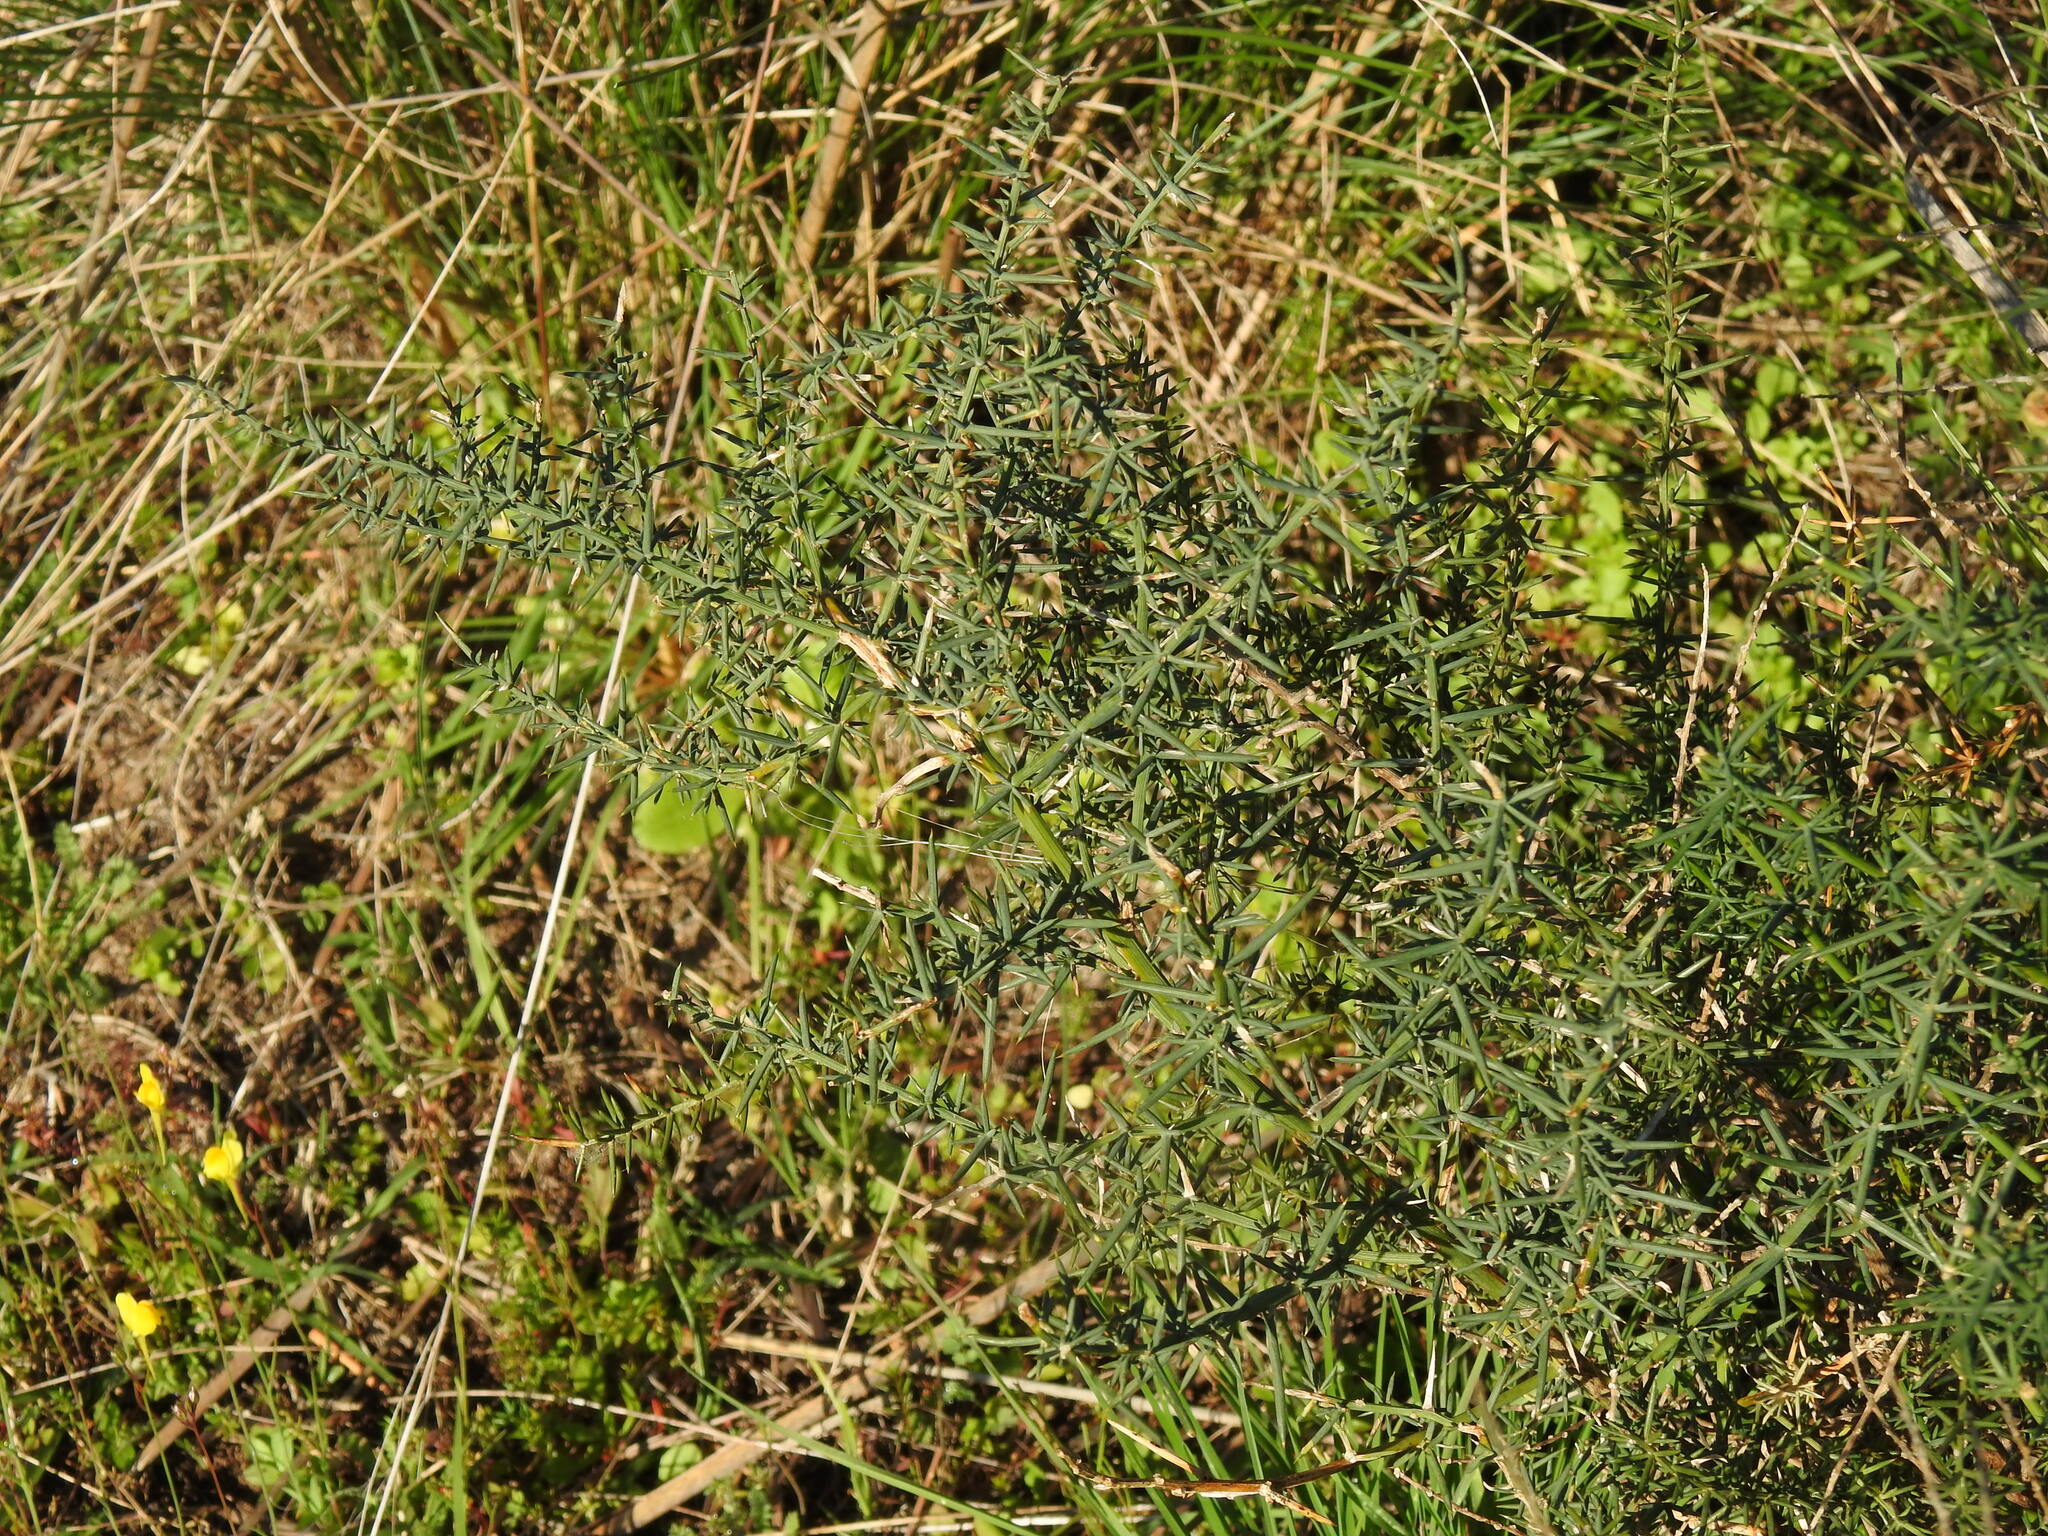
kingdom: Plantae
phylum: Tracheophyta
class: Liliopsida
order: Asparagales
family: Asparagaceae
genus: Asparagus
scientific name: Asparagus aphyllus
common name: Mediterranean asparagus
